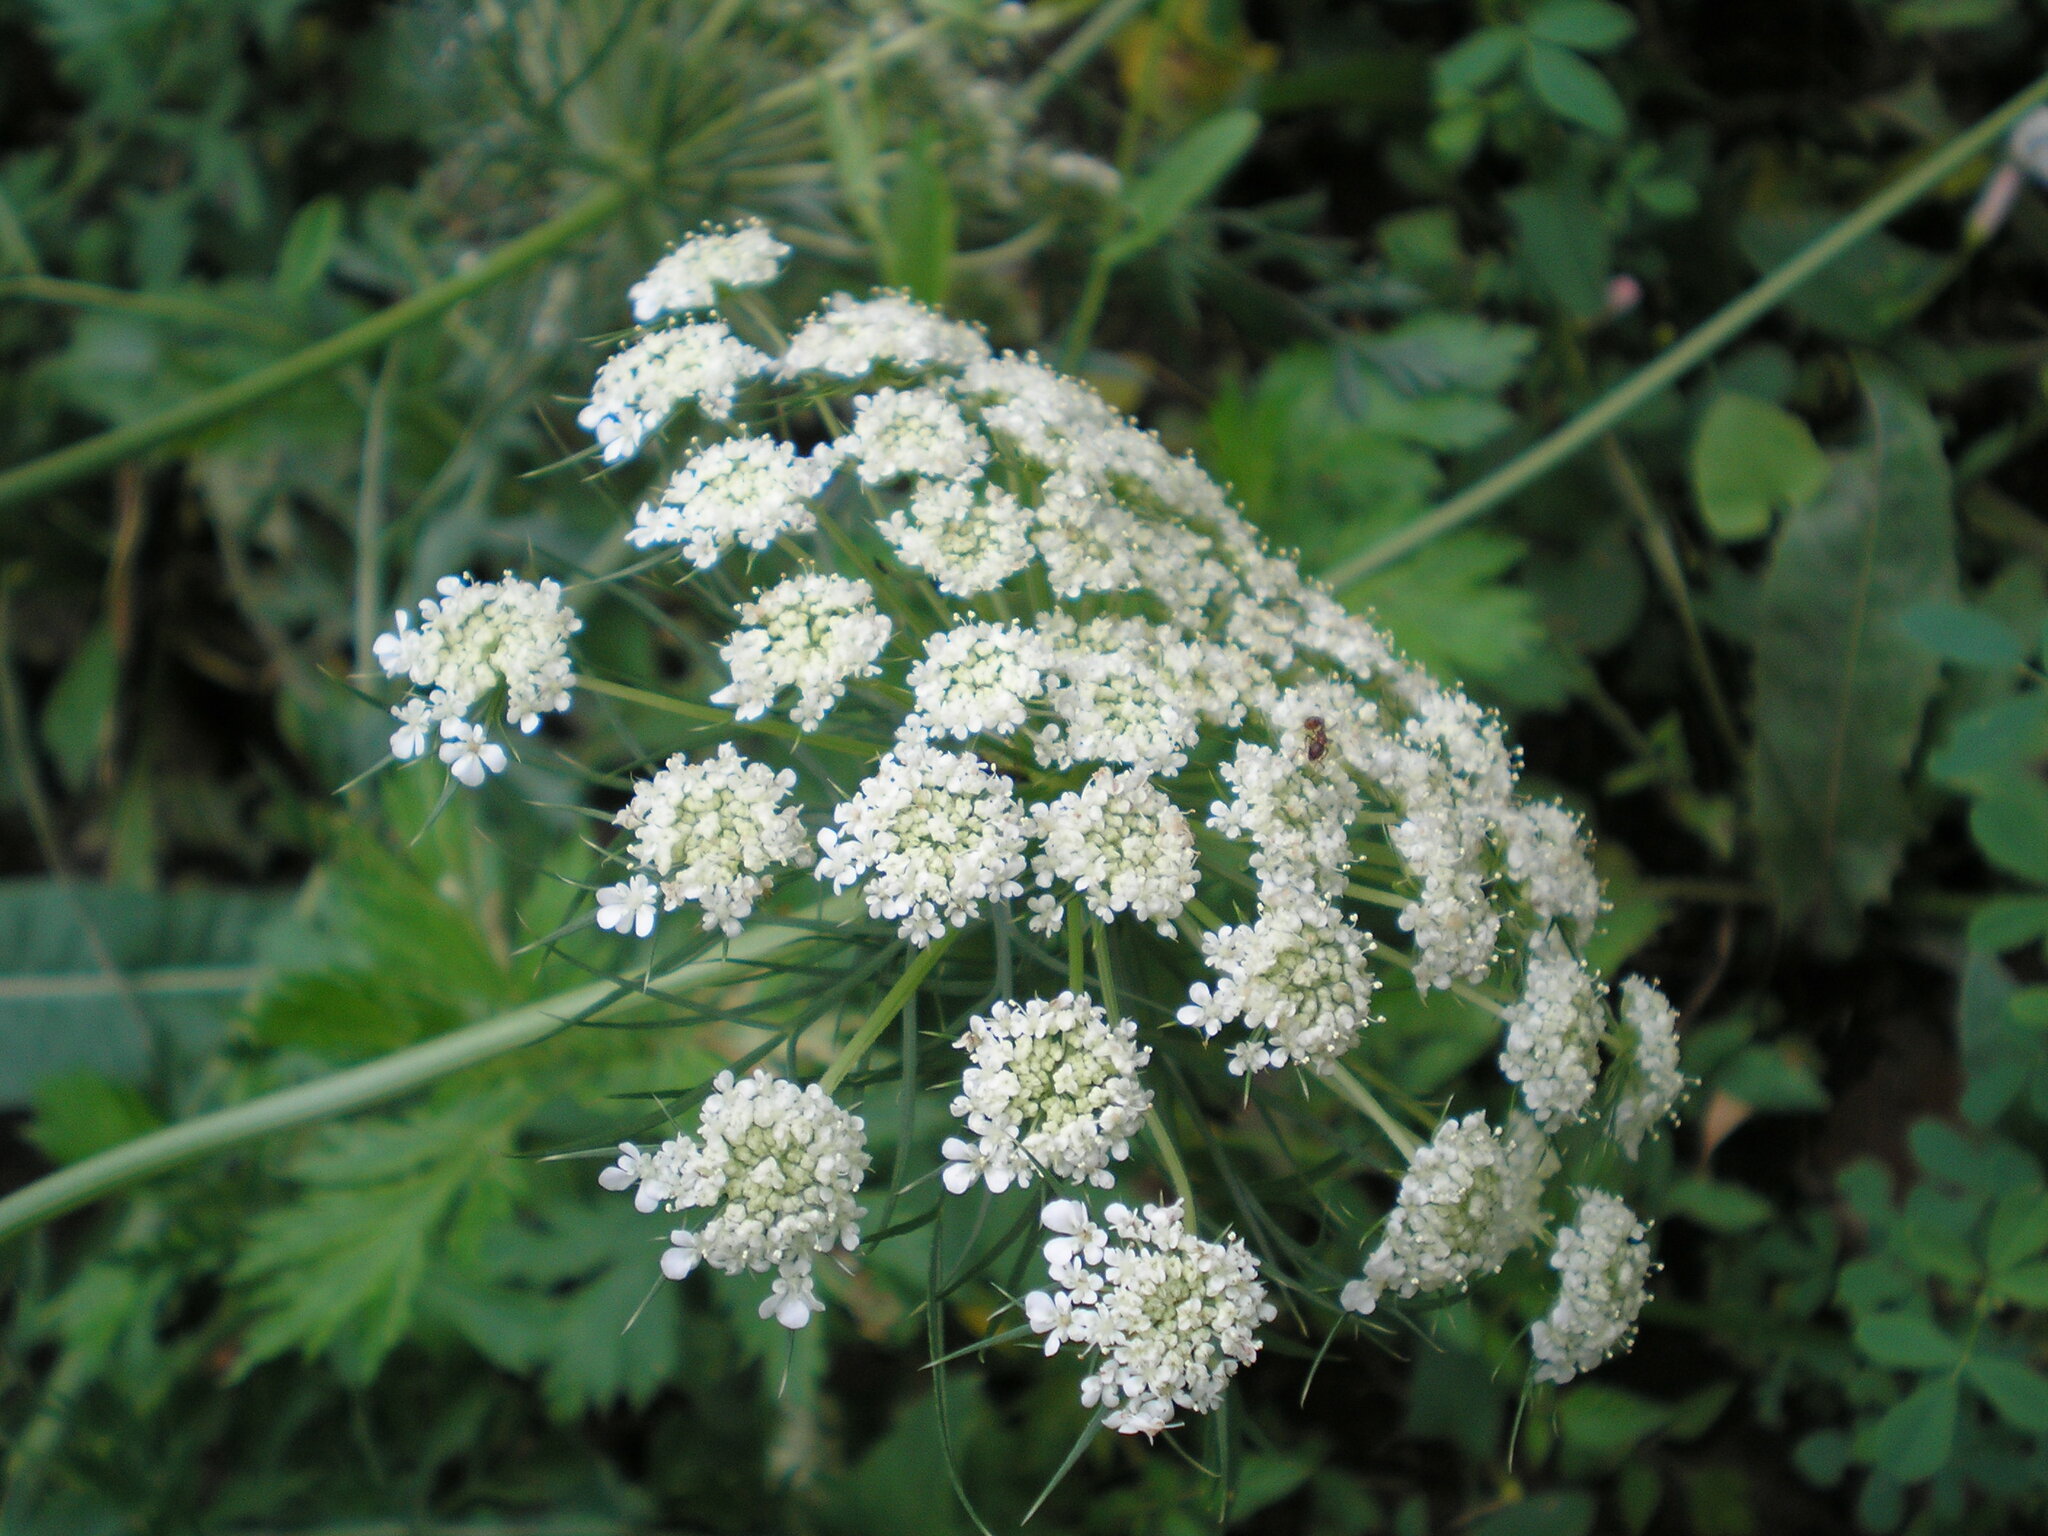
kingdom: Plantae
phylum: Tracheophyta
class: Magnoliopsida
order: Apiales
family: Apiaceae
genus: Daucus
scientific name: Daucus carota
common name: Wild carrot
